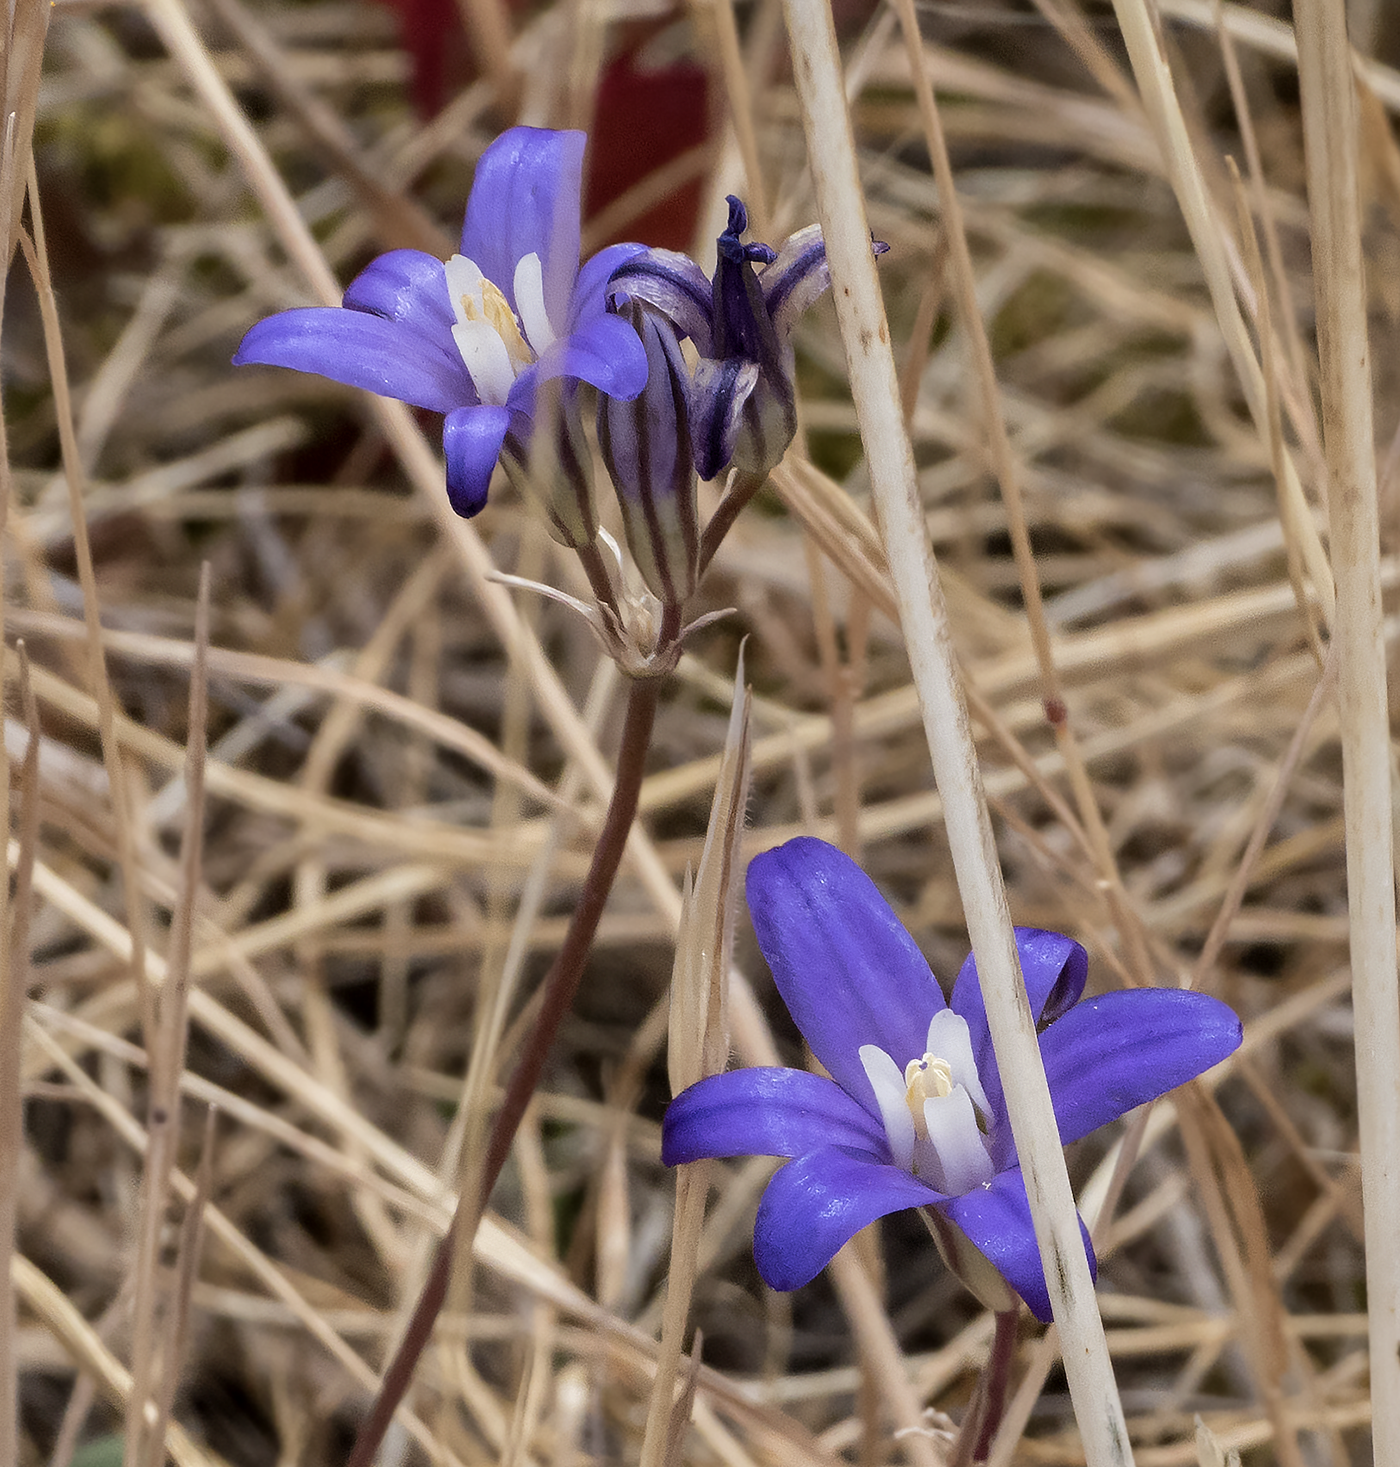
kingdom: Plantae
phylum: Tracheophyta
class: Liliopsida
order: Asparagales
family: Asparagaceae
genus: Brodiaea
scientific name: Brodiaea coronaria
